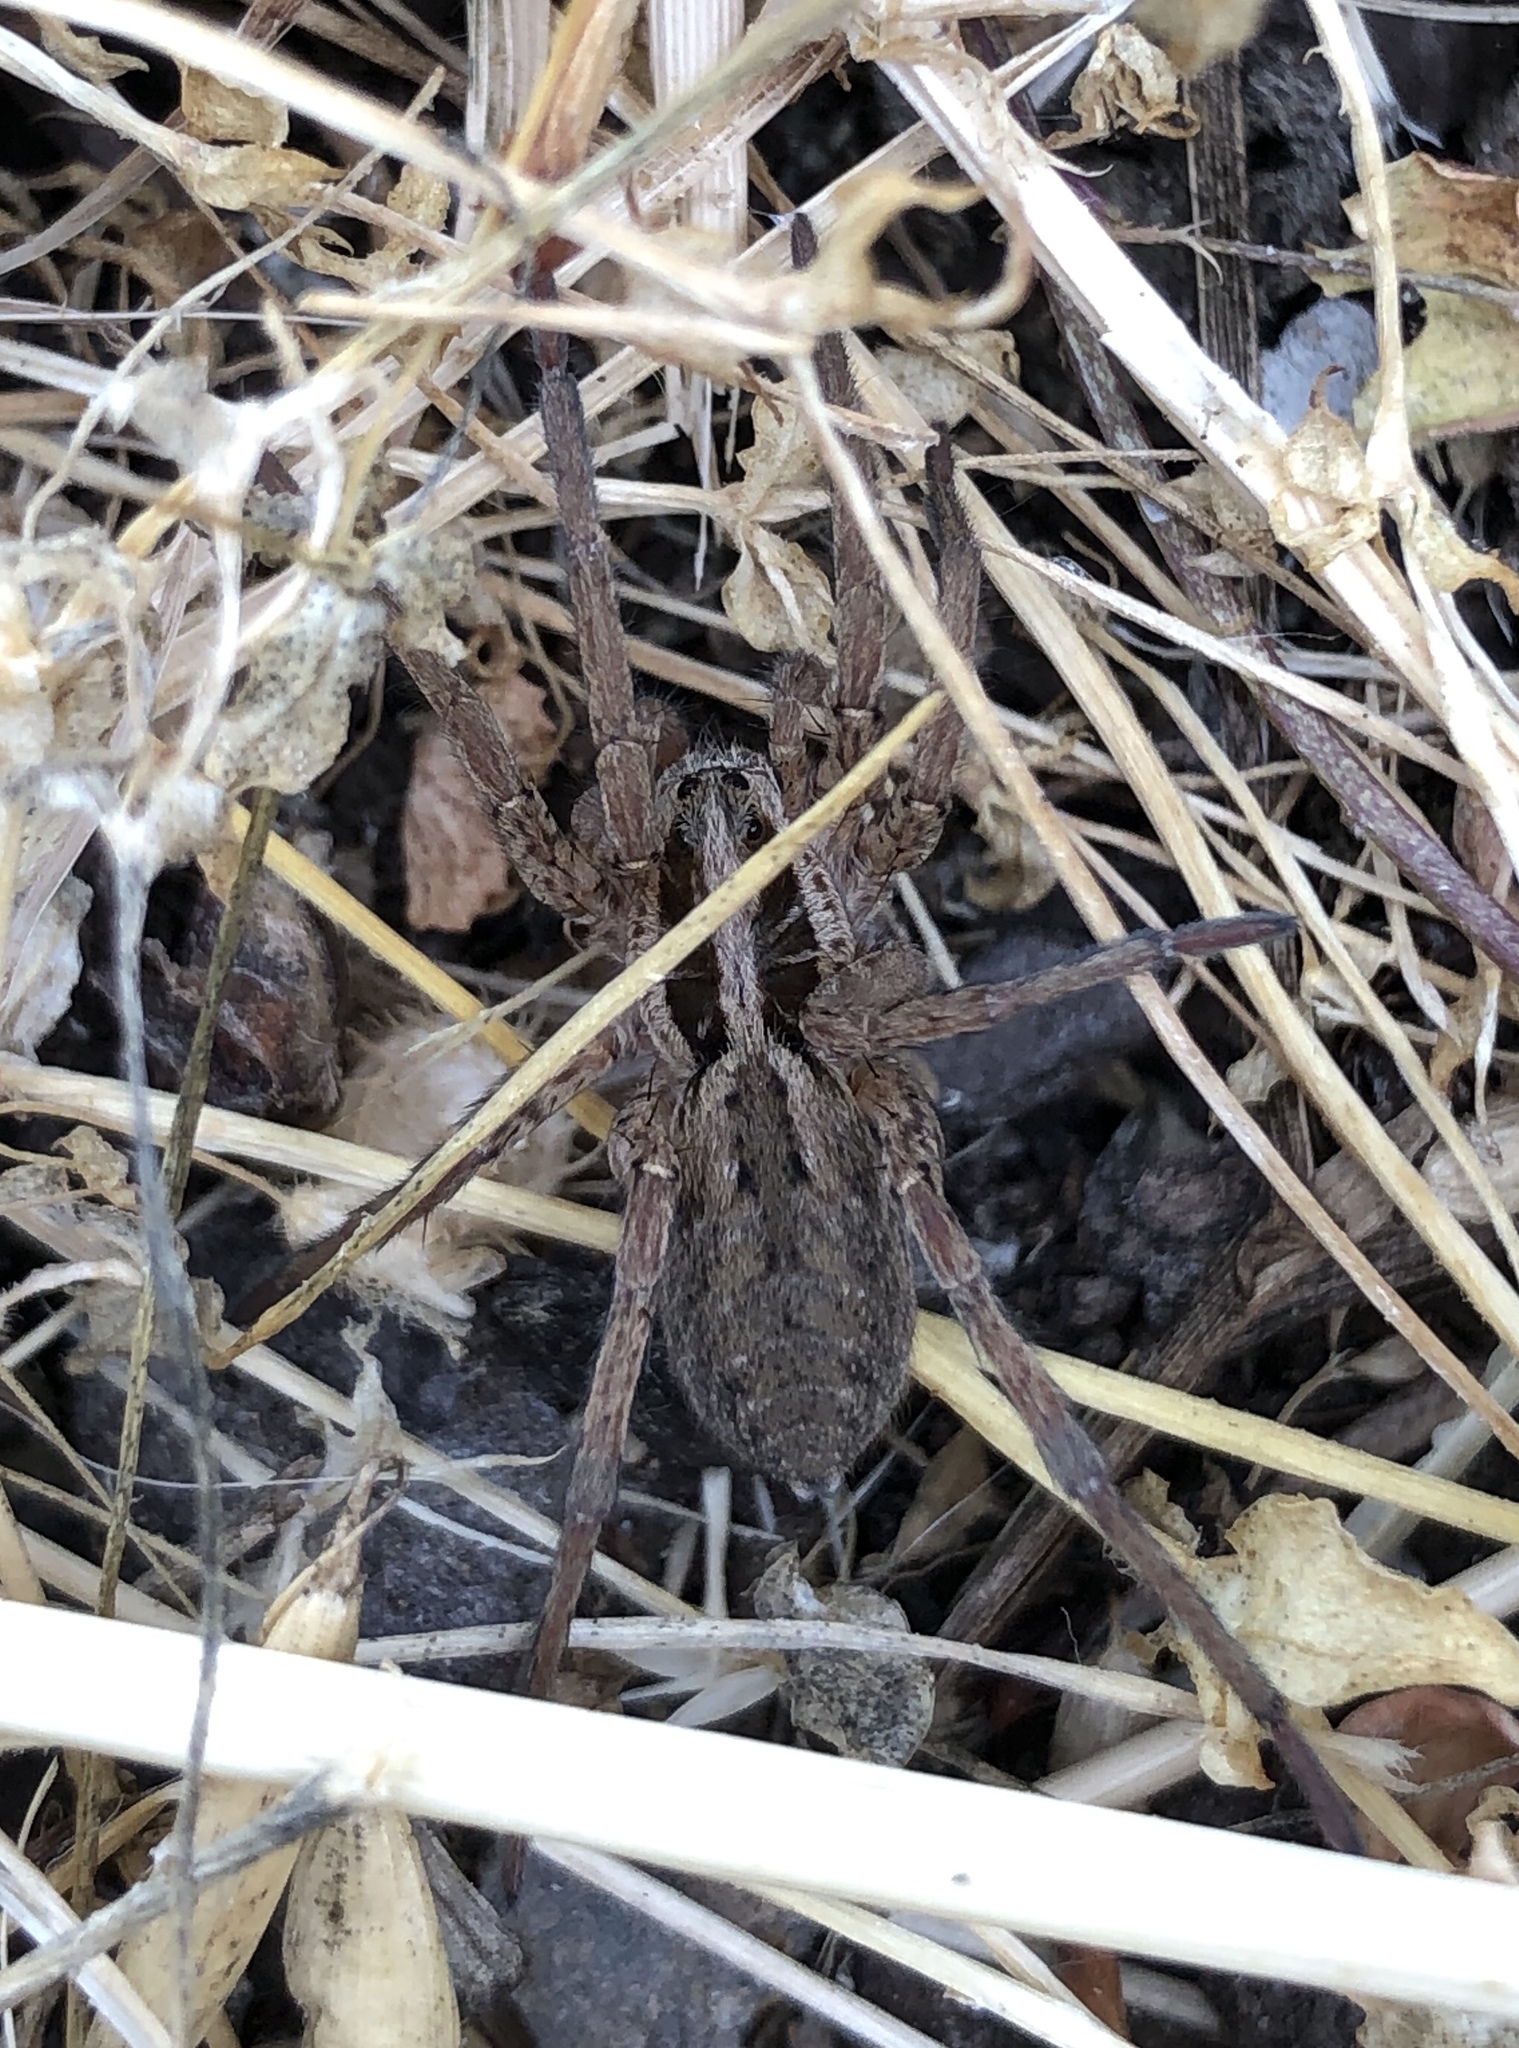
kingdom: Animalia
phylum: Arthropoda
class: Arachnida
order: Araneae
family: Lycosidae
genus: Hogna
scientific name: Hogna radiata
